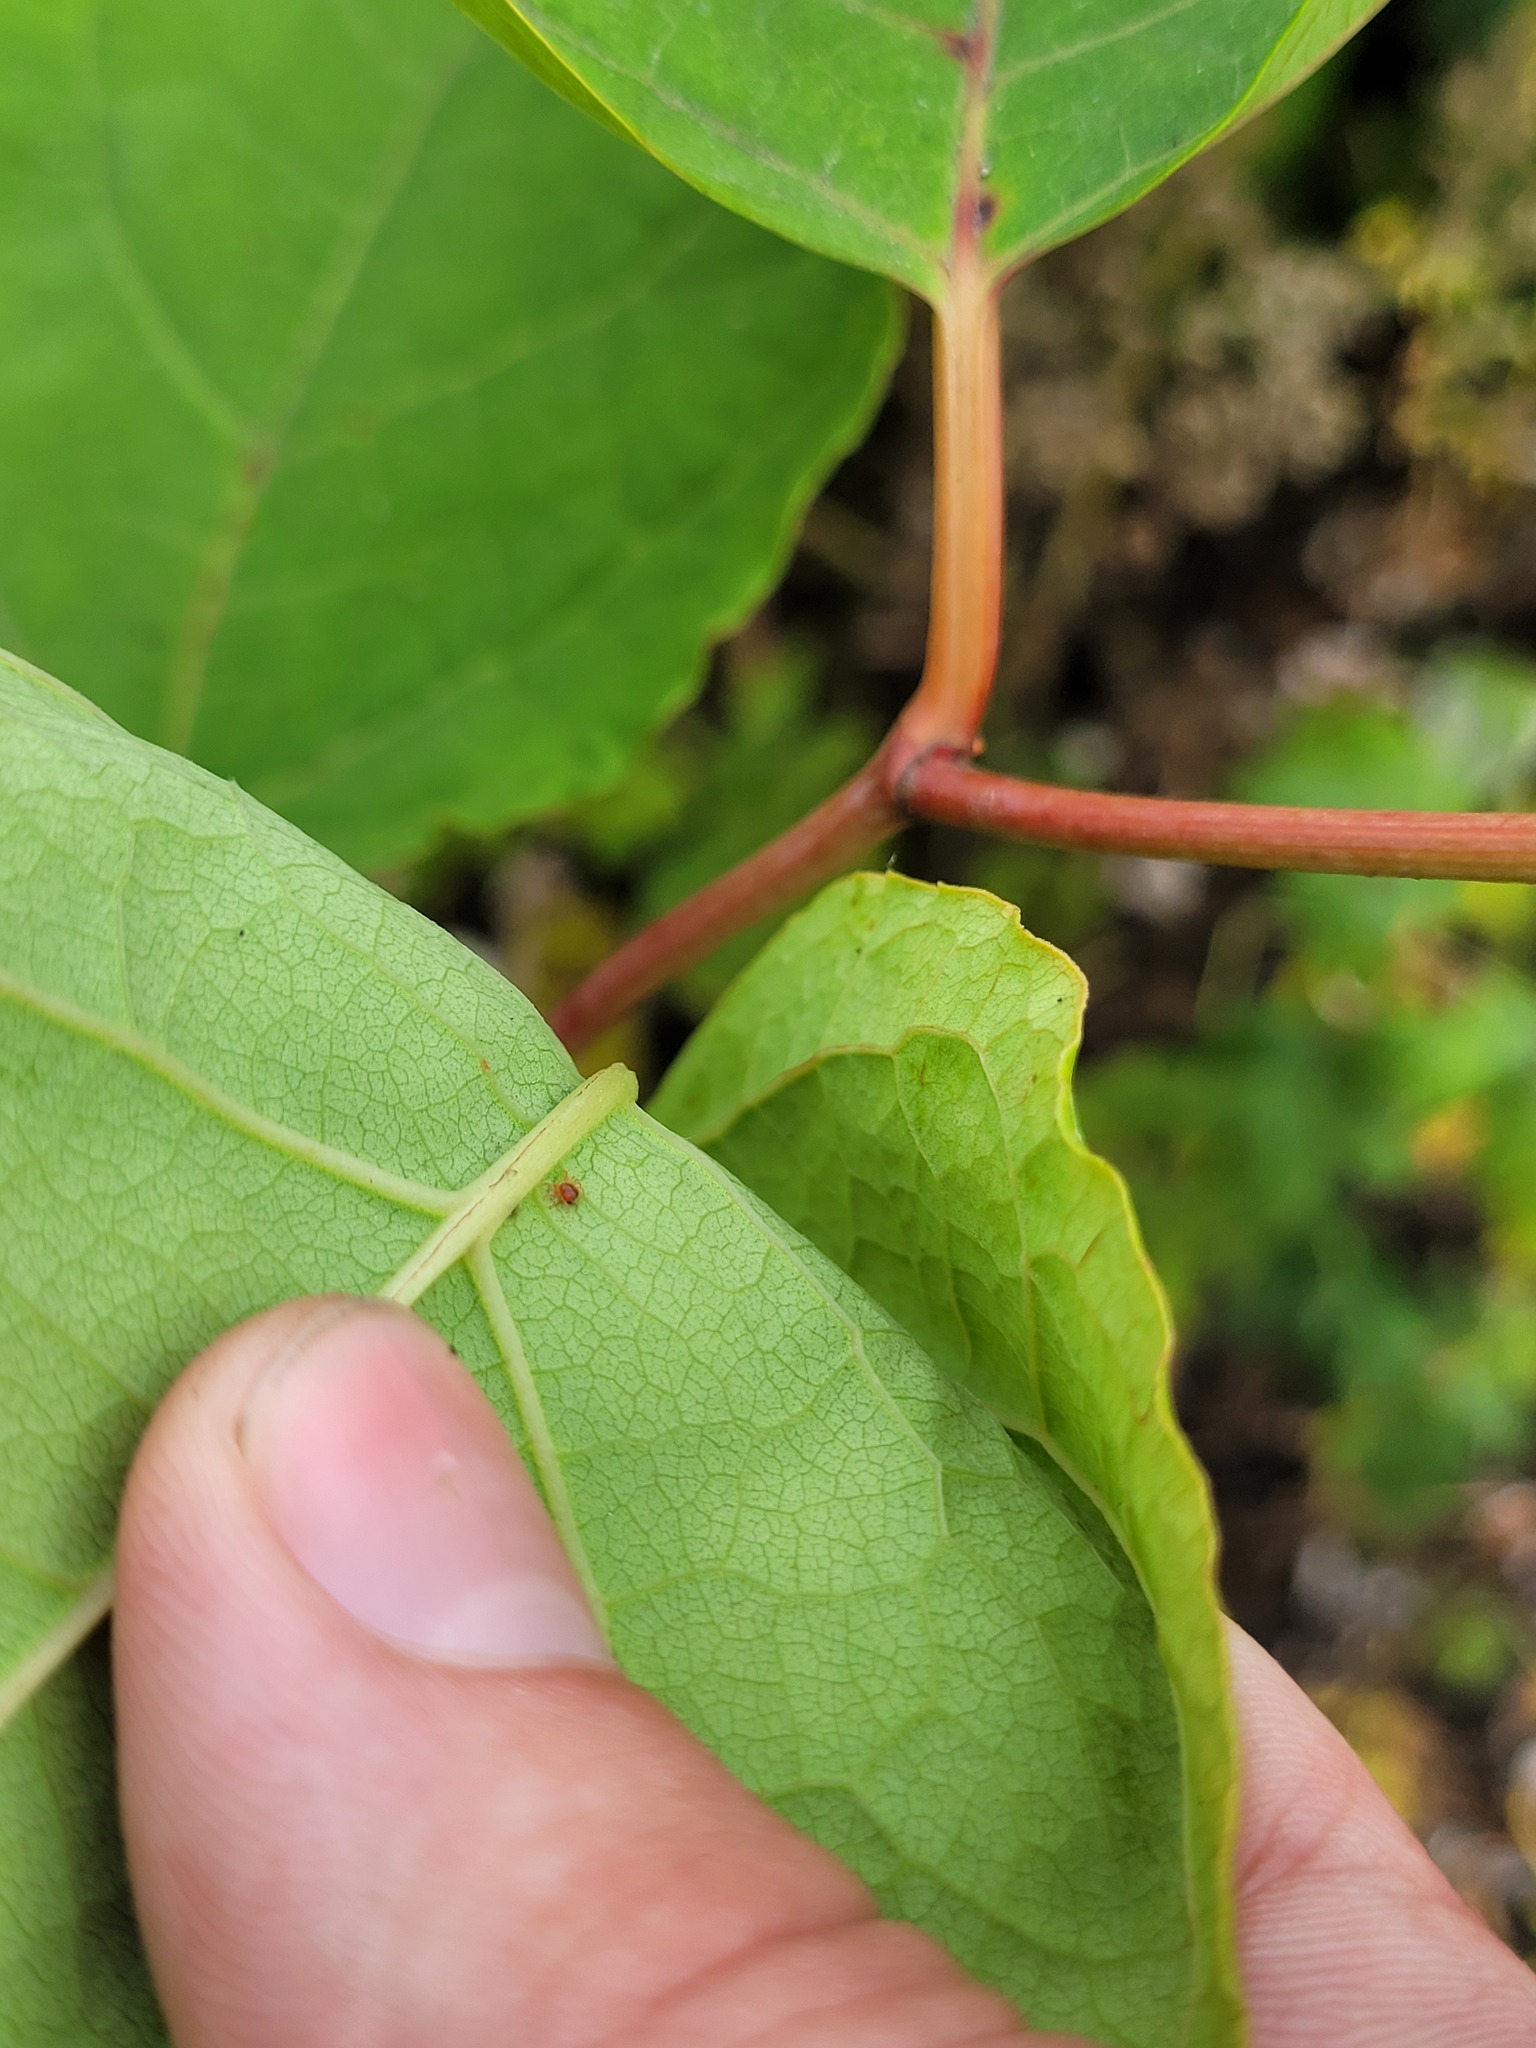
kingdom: Plantae
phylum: Tracheophyta
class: Magnoliopsida
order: Caryophyllales
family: Polygonaceae
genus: Reynoutria
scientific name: Reynoutria bohemica
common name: Bohemian knotweed
